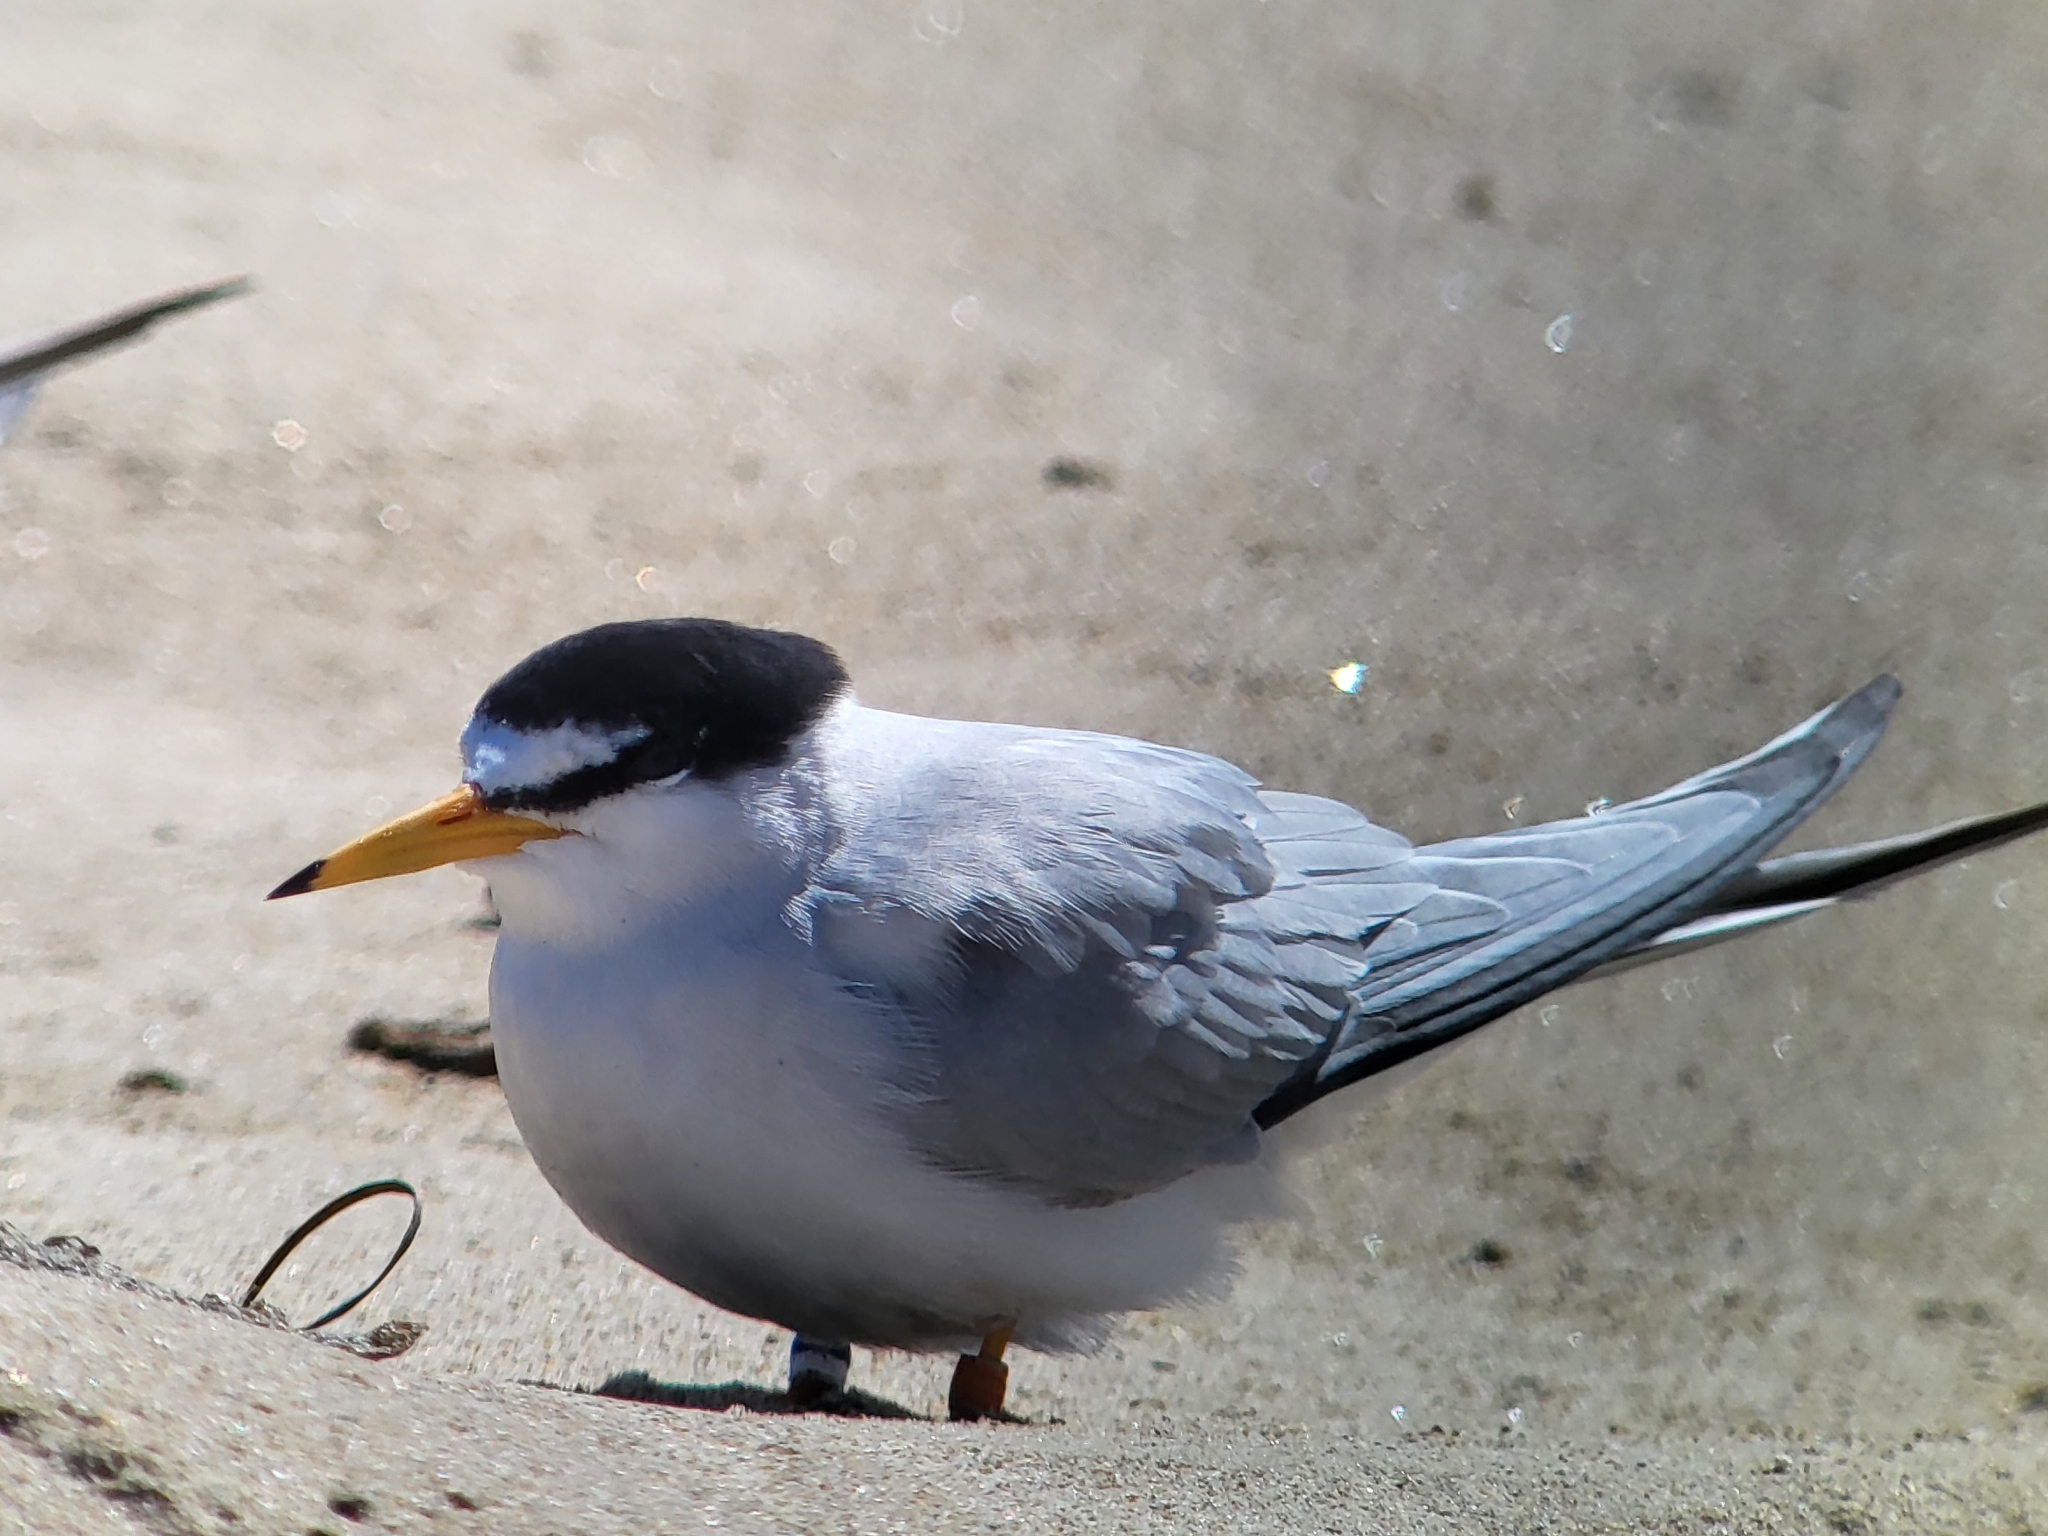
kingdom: Animalia
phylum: Chordata
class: Aves
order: Charadriiformes
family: Laridae
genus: Sternula
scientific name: Sternula antillarum
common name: Least tern
